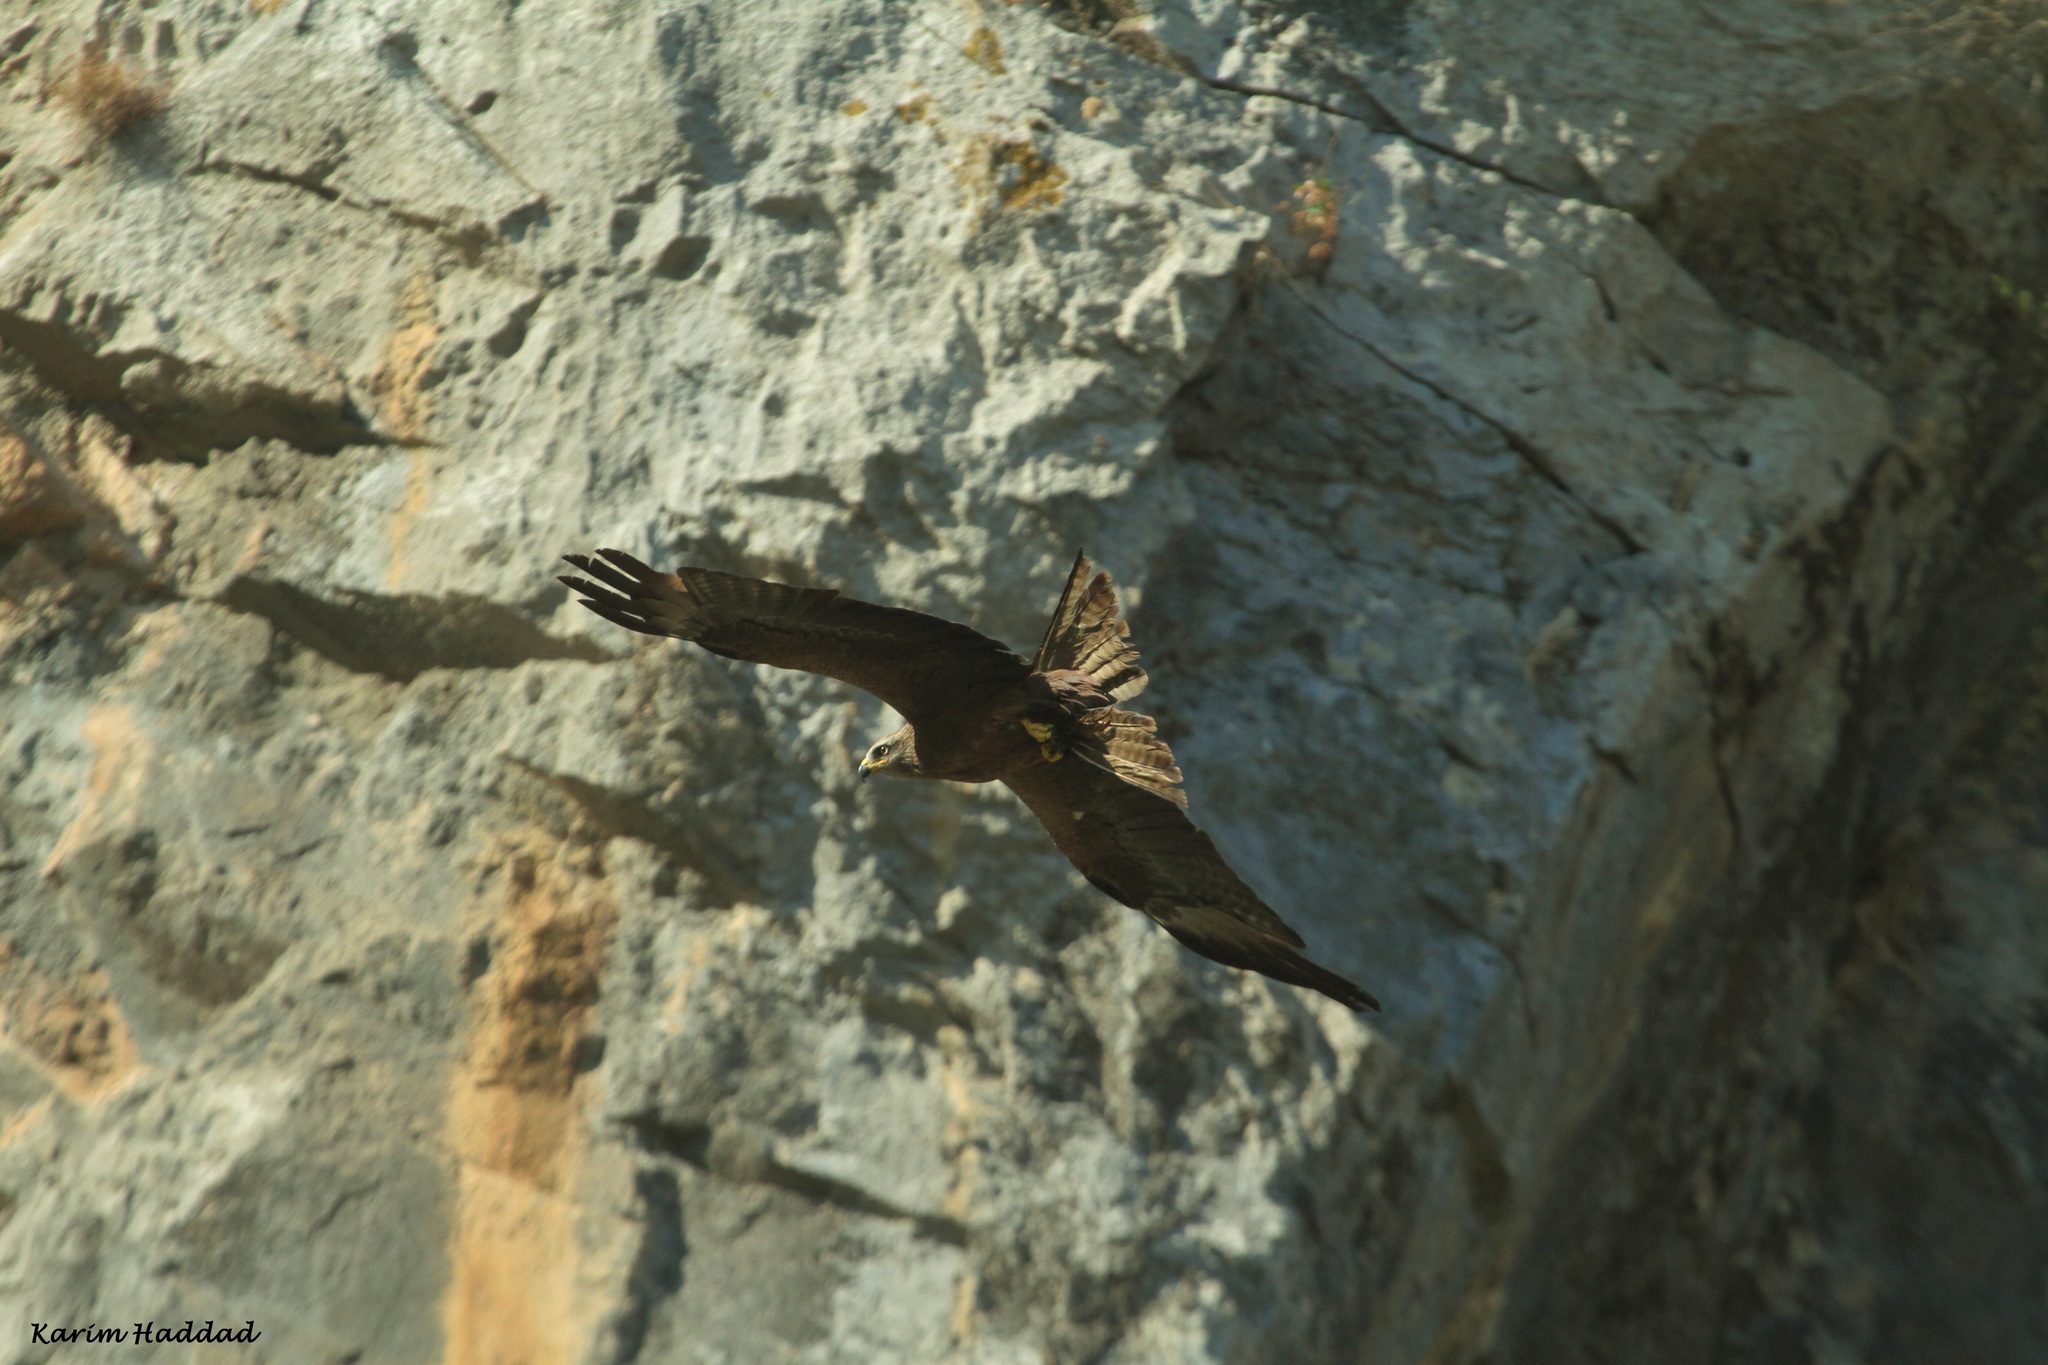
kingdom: Animalia
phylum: Chordata
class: Aves
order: Accipitriformes
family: Accipitridae
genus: Milvus
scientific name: Milvus migrans
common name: Black kite
